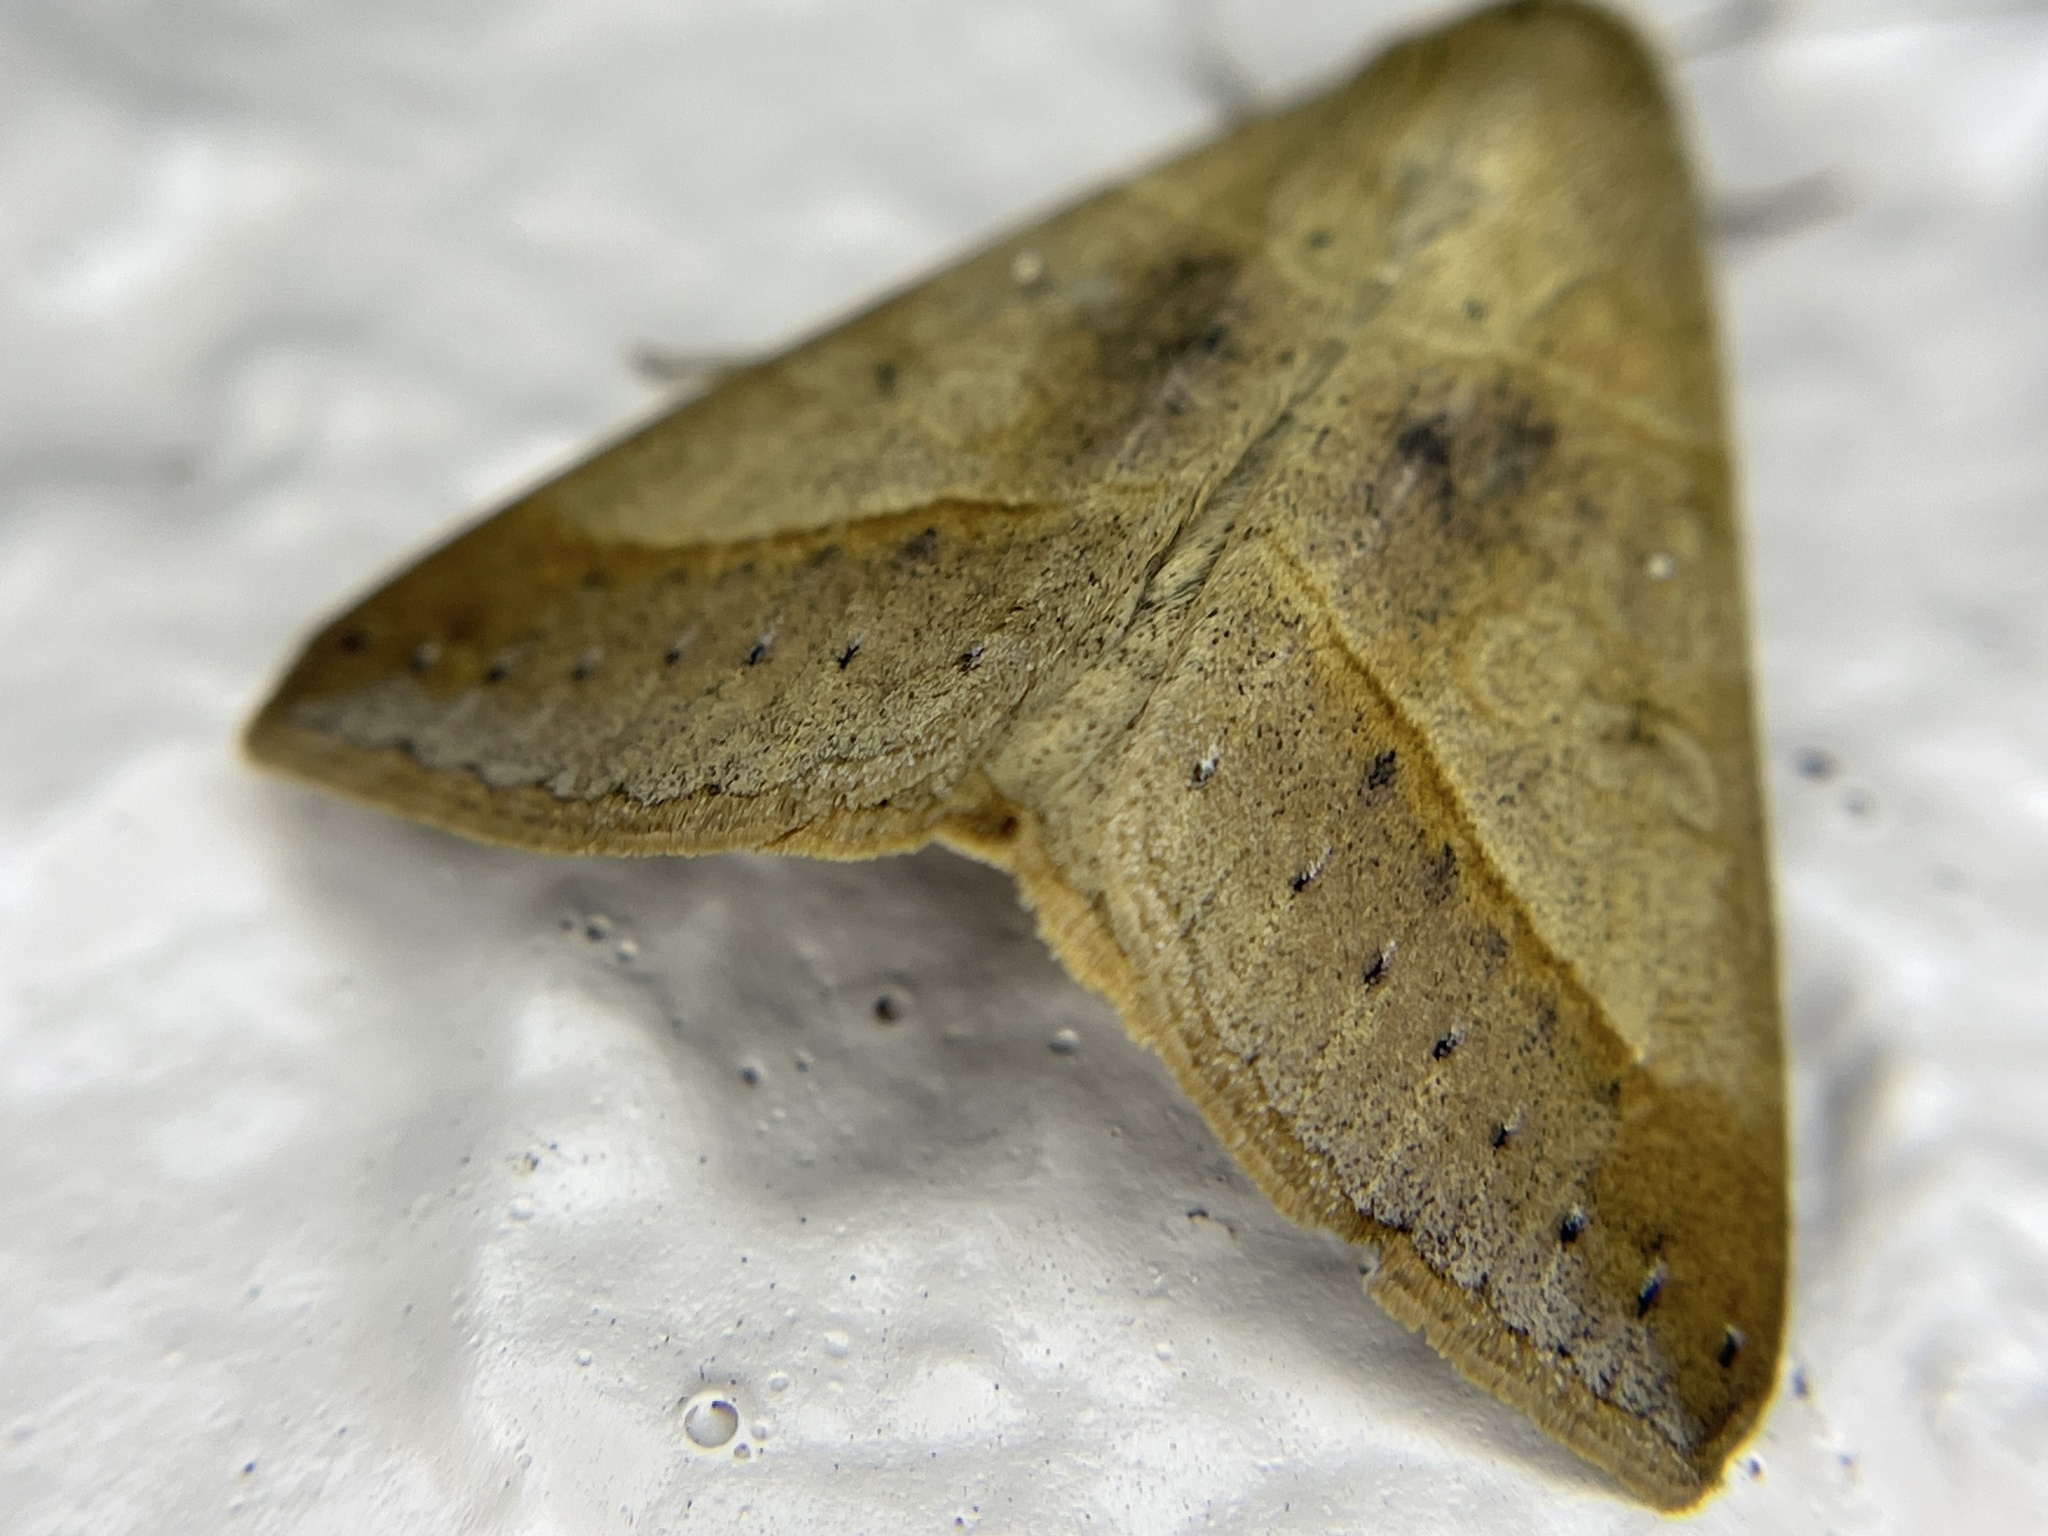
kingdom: Animalia
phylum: Arthropoda
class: Insecta
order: Lepidoptera
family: Erebidae
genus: Mocis
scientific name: Mocis latipes
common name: Striped grass looper
